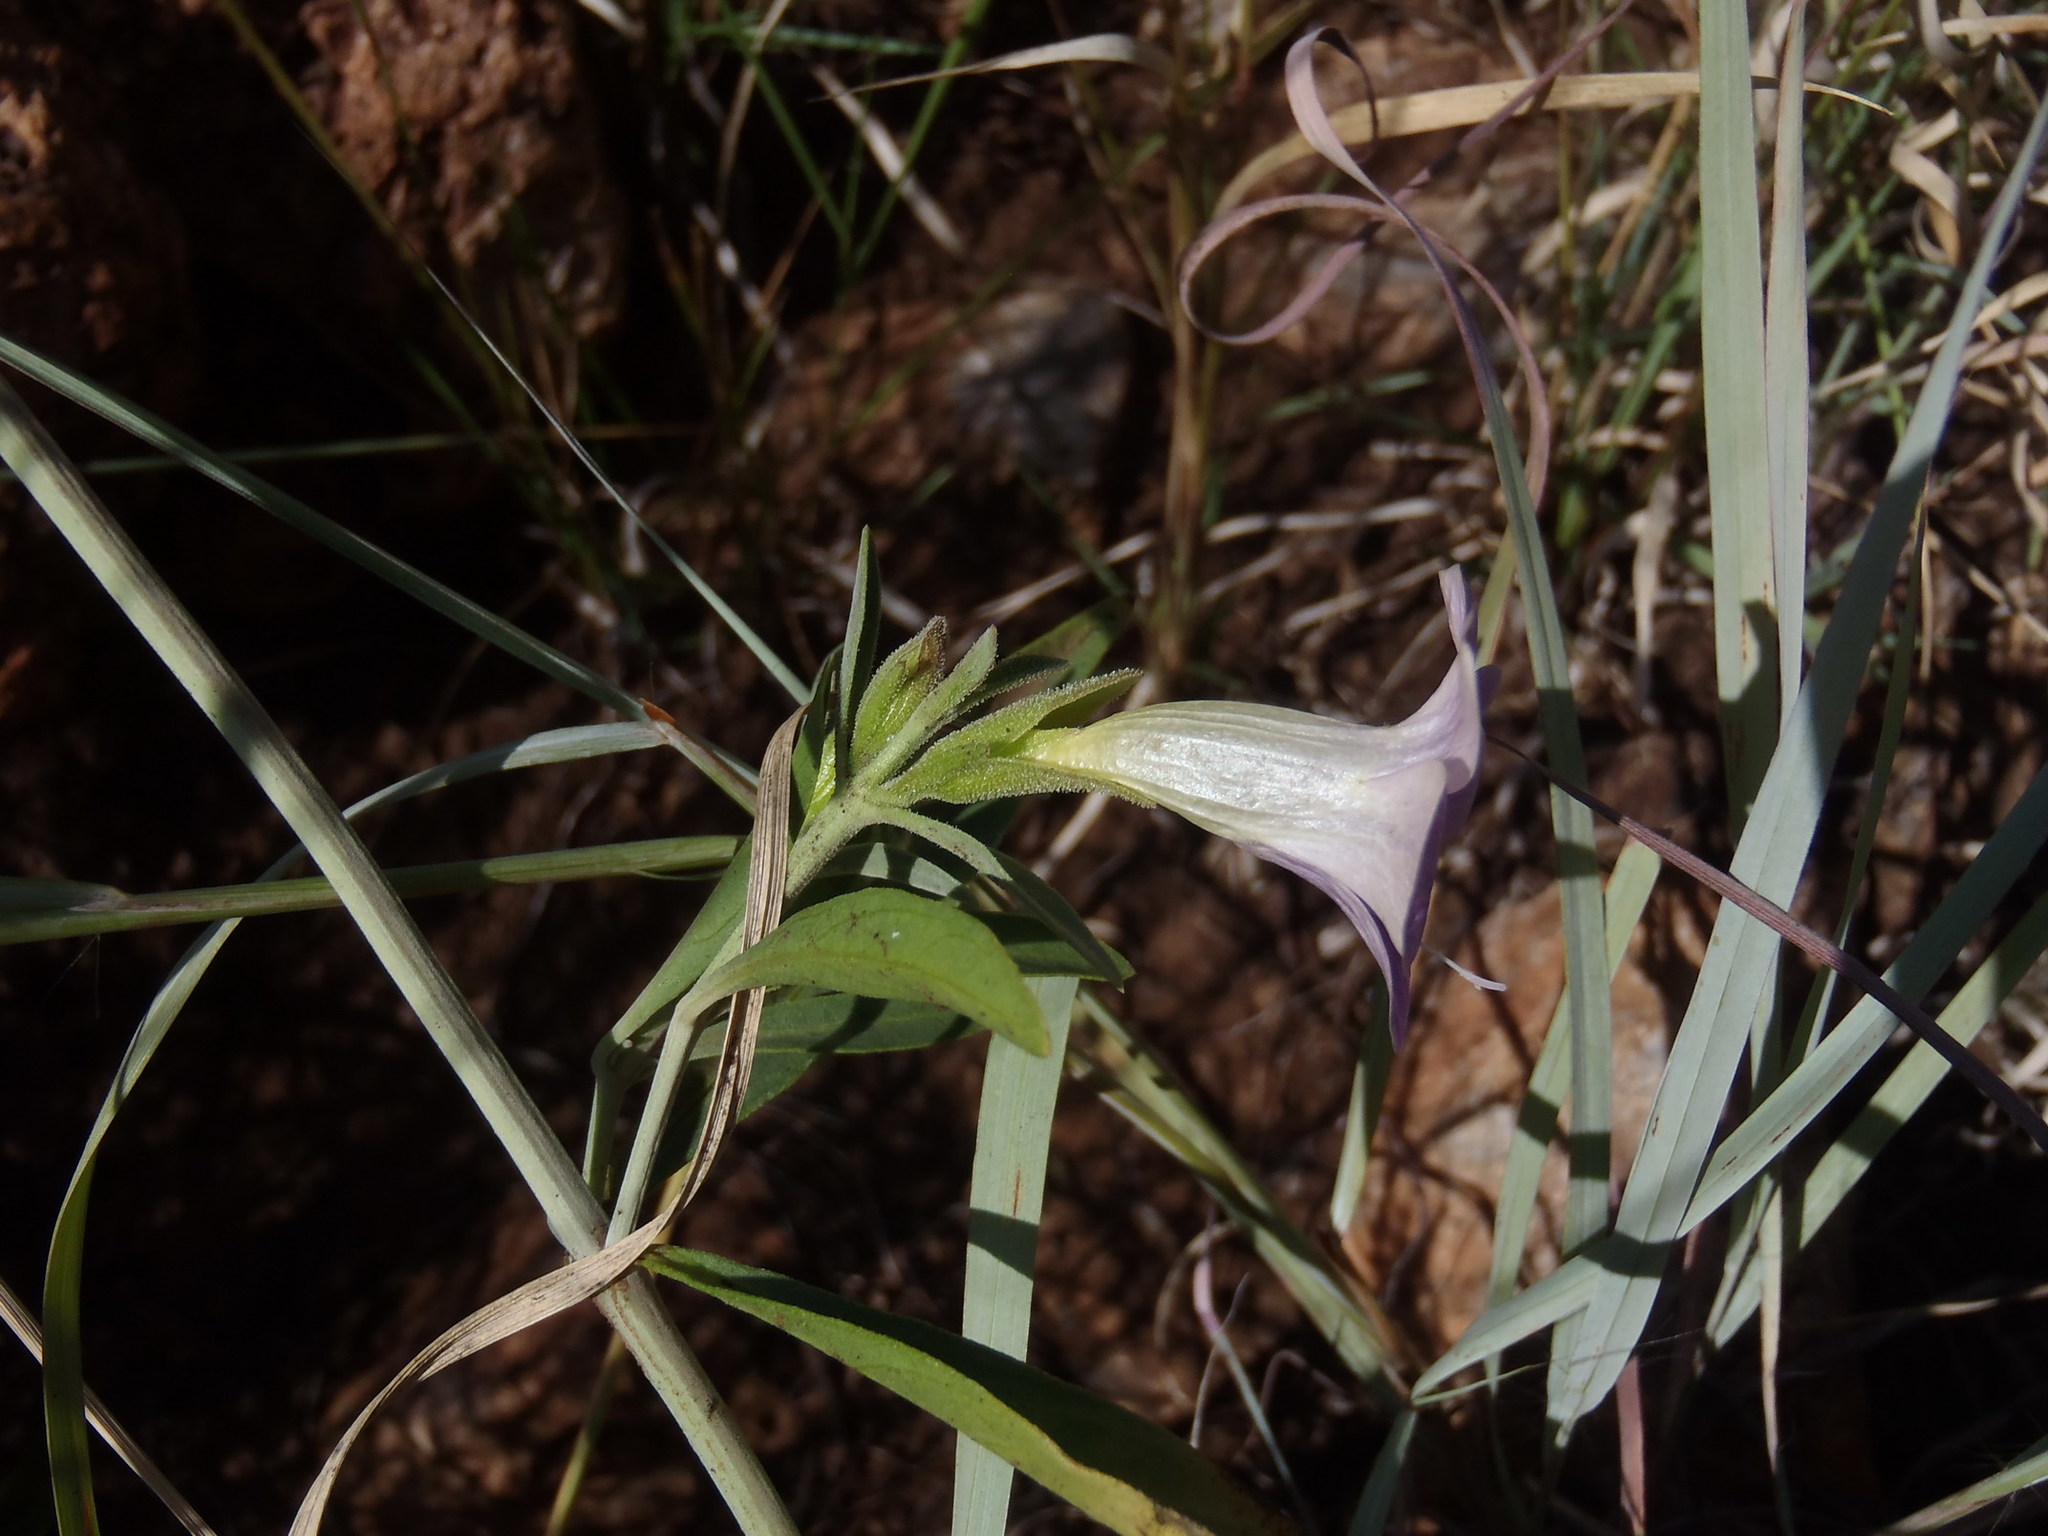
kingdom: Plantae
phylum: Tracheophyta
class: Magnoliopsida
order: Lamiales
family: Acanthaceae
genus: Barleria
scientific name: Barleria lancifolia
